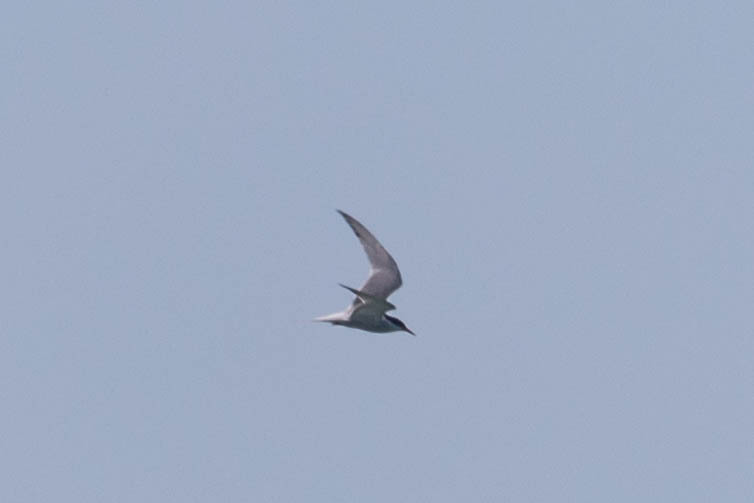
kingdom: Animalia
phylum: Chordata
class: Aves
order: Charadriiformes
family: Laridae
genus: Sterna
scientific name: Sterna hirundo
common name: Common tern
